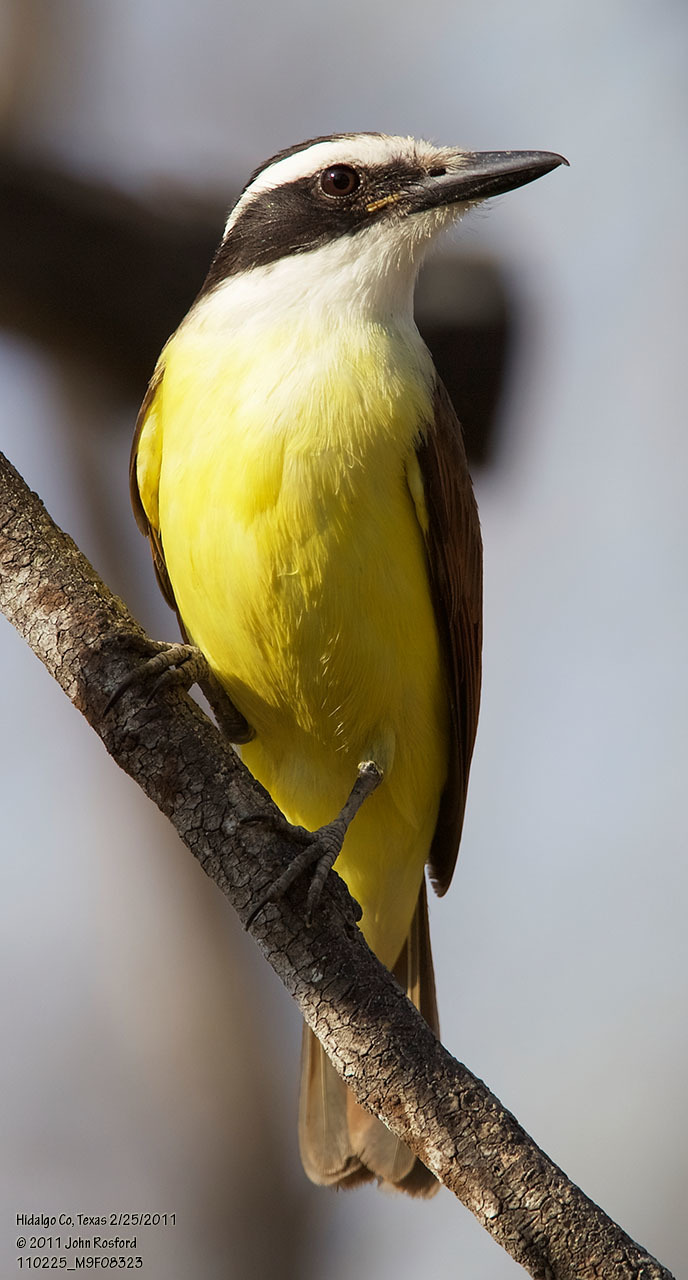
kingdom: Animalia
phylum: Chordata
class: Aves
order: Passeriformes
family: Tyrannidae
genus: Pitangus
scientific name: Pitangus sulphuratus
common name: Great kiskadee
